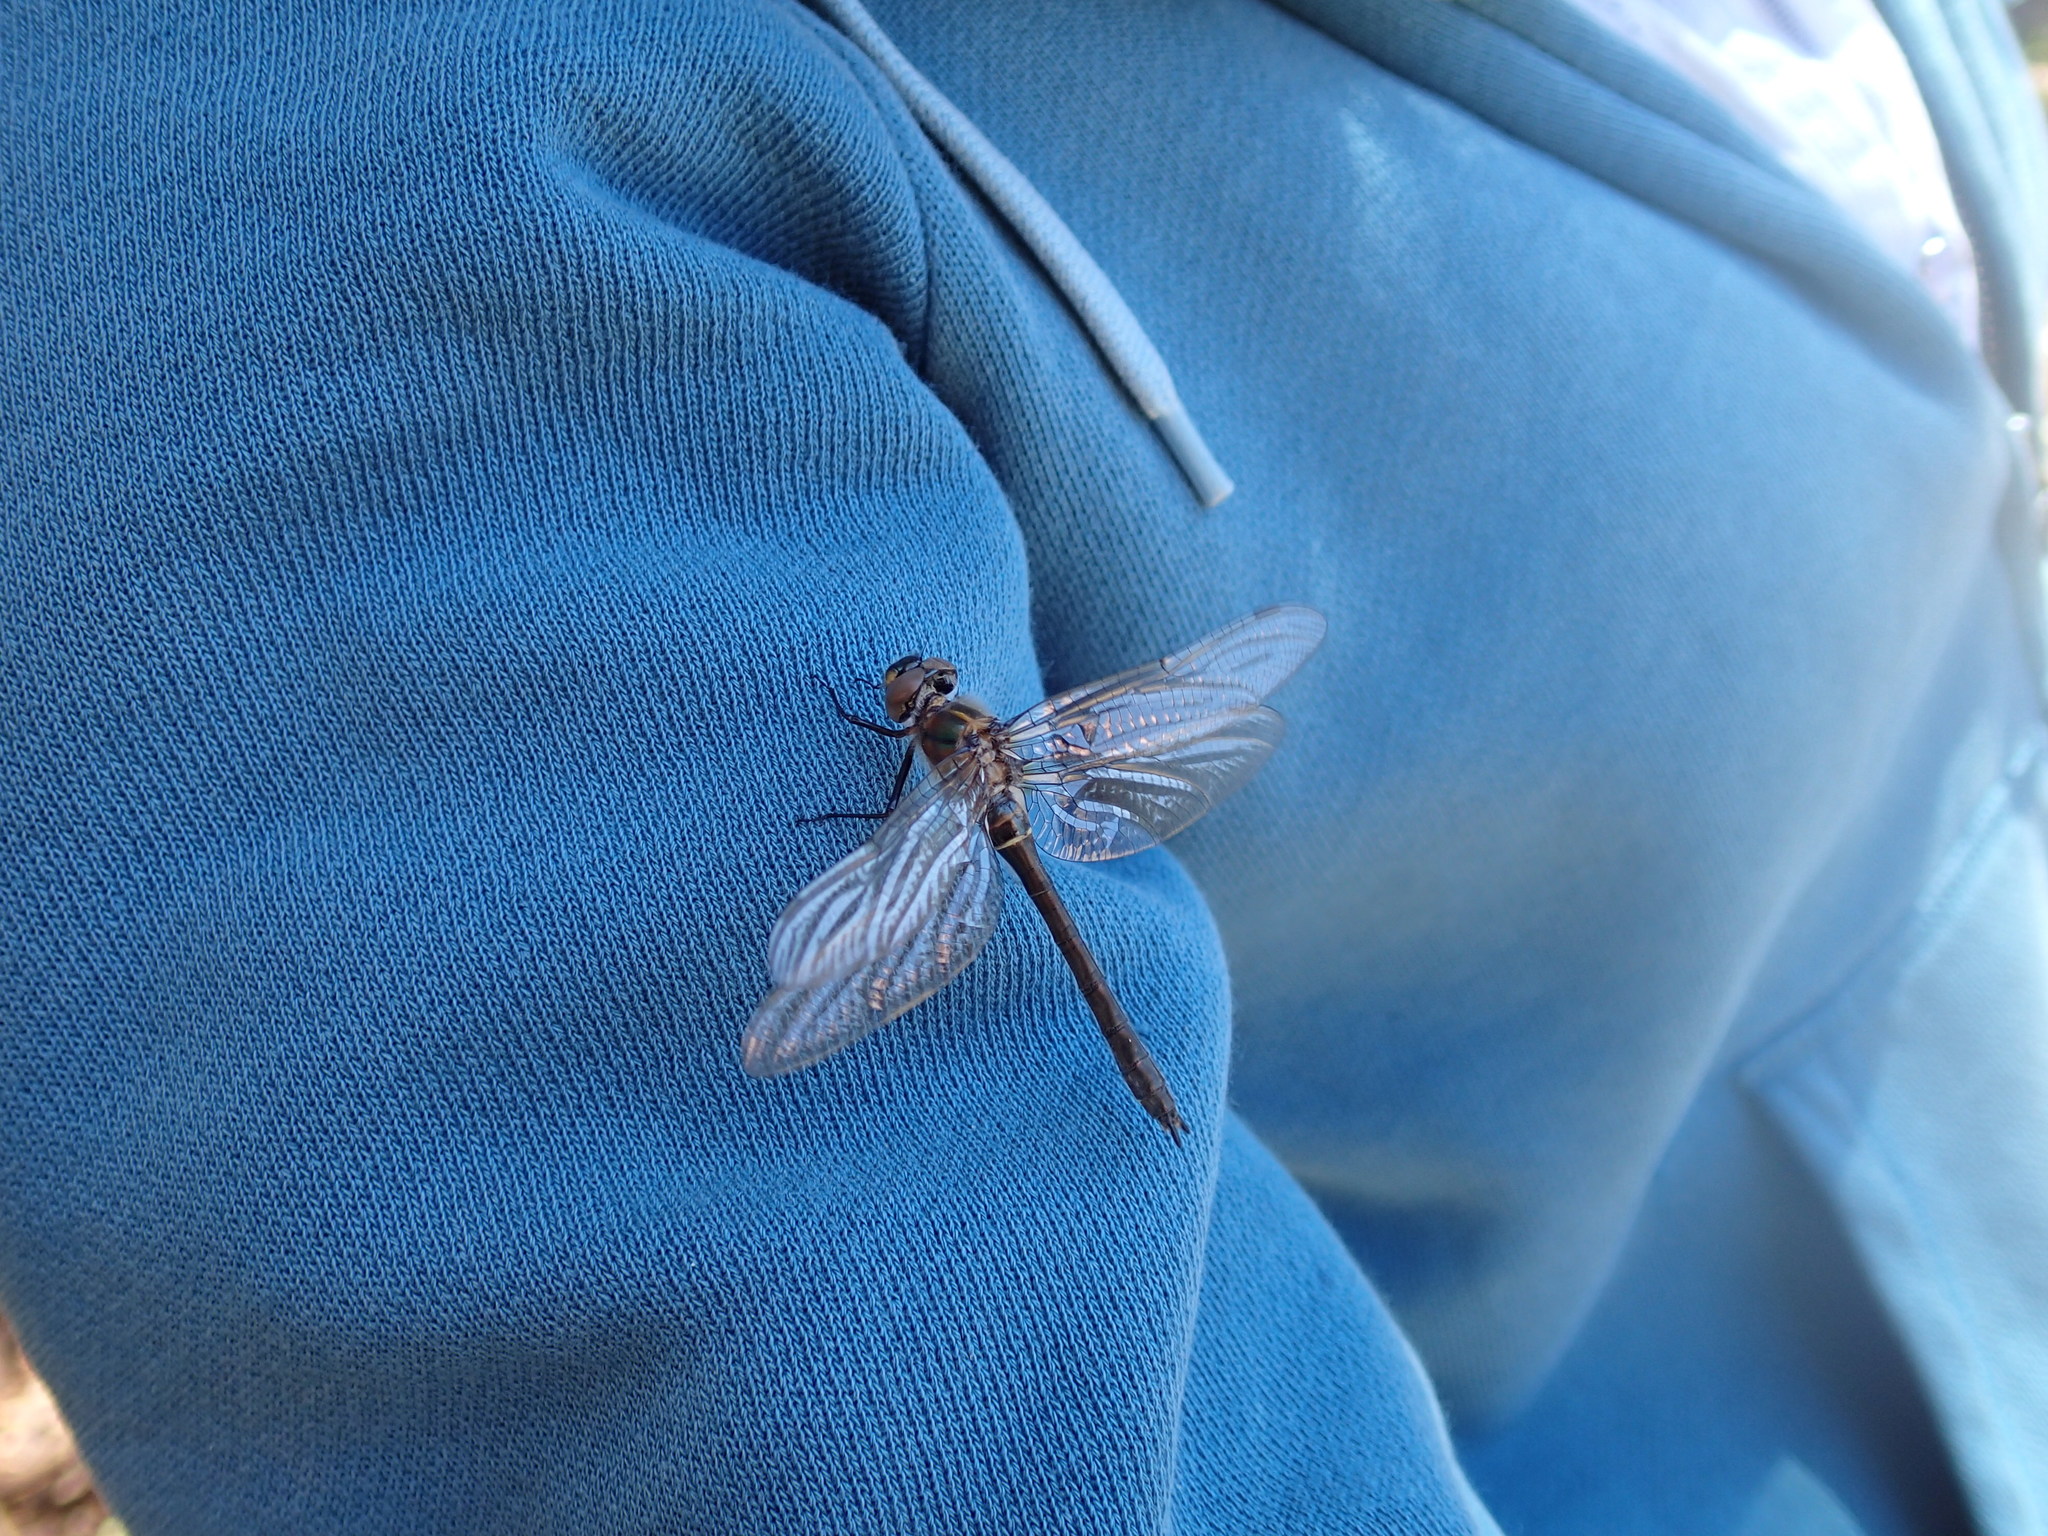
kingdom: Animalia
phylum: Arthropoda
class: Insecta
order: Odonata
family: Corduliidae
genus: Cordulia
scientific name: Cordulia shurtleffii
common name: American emerald
